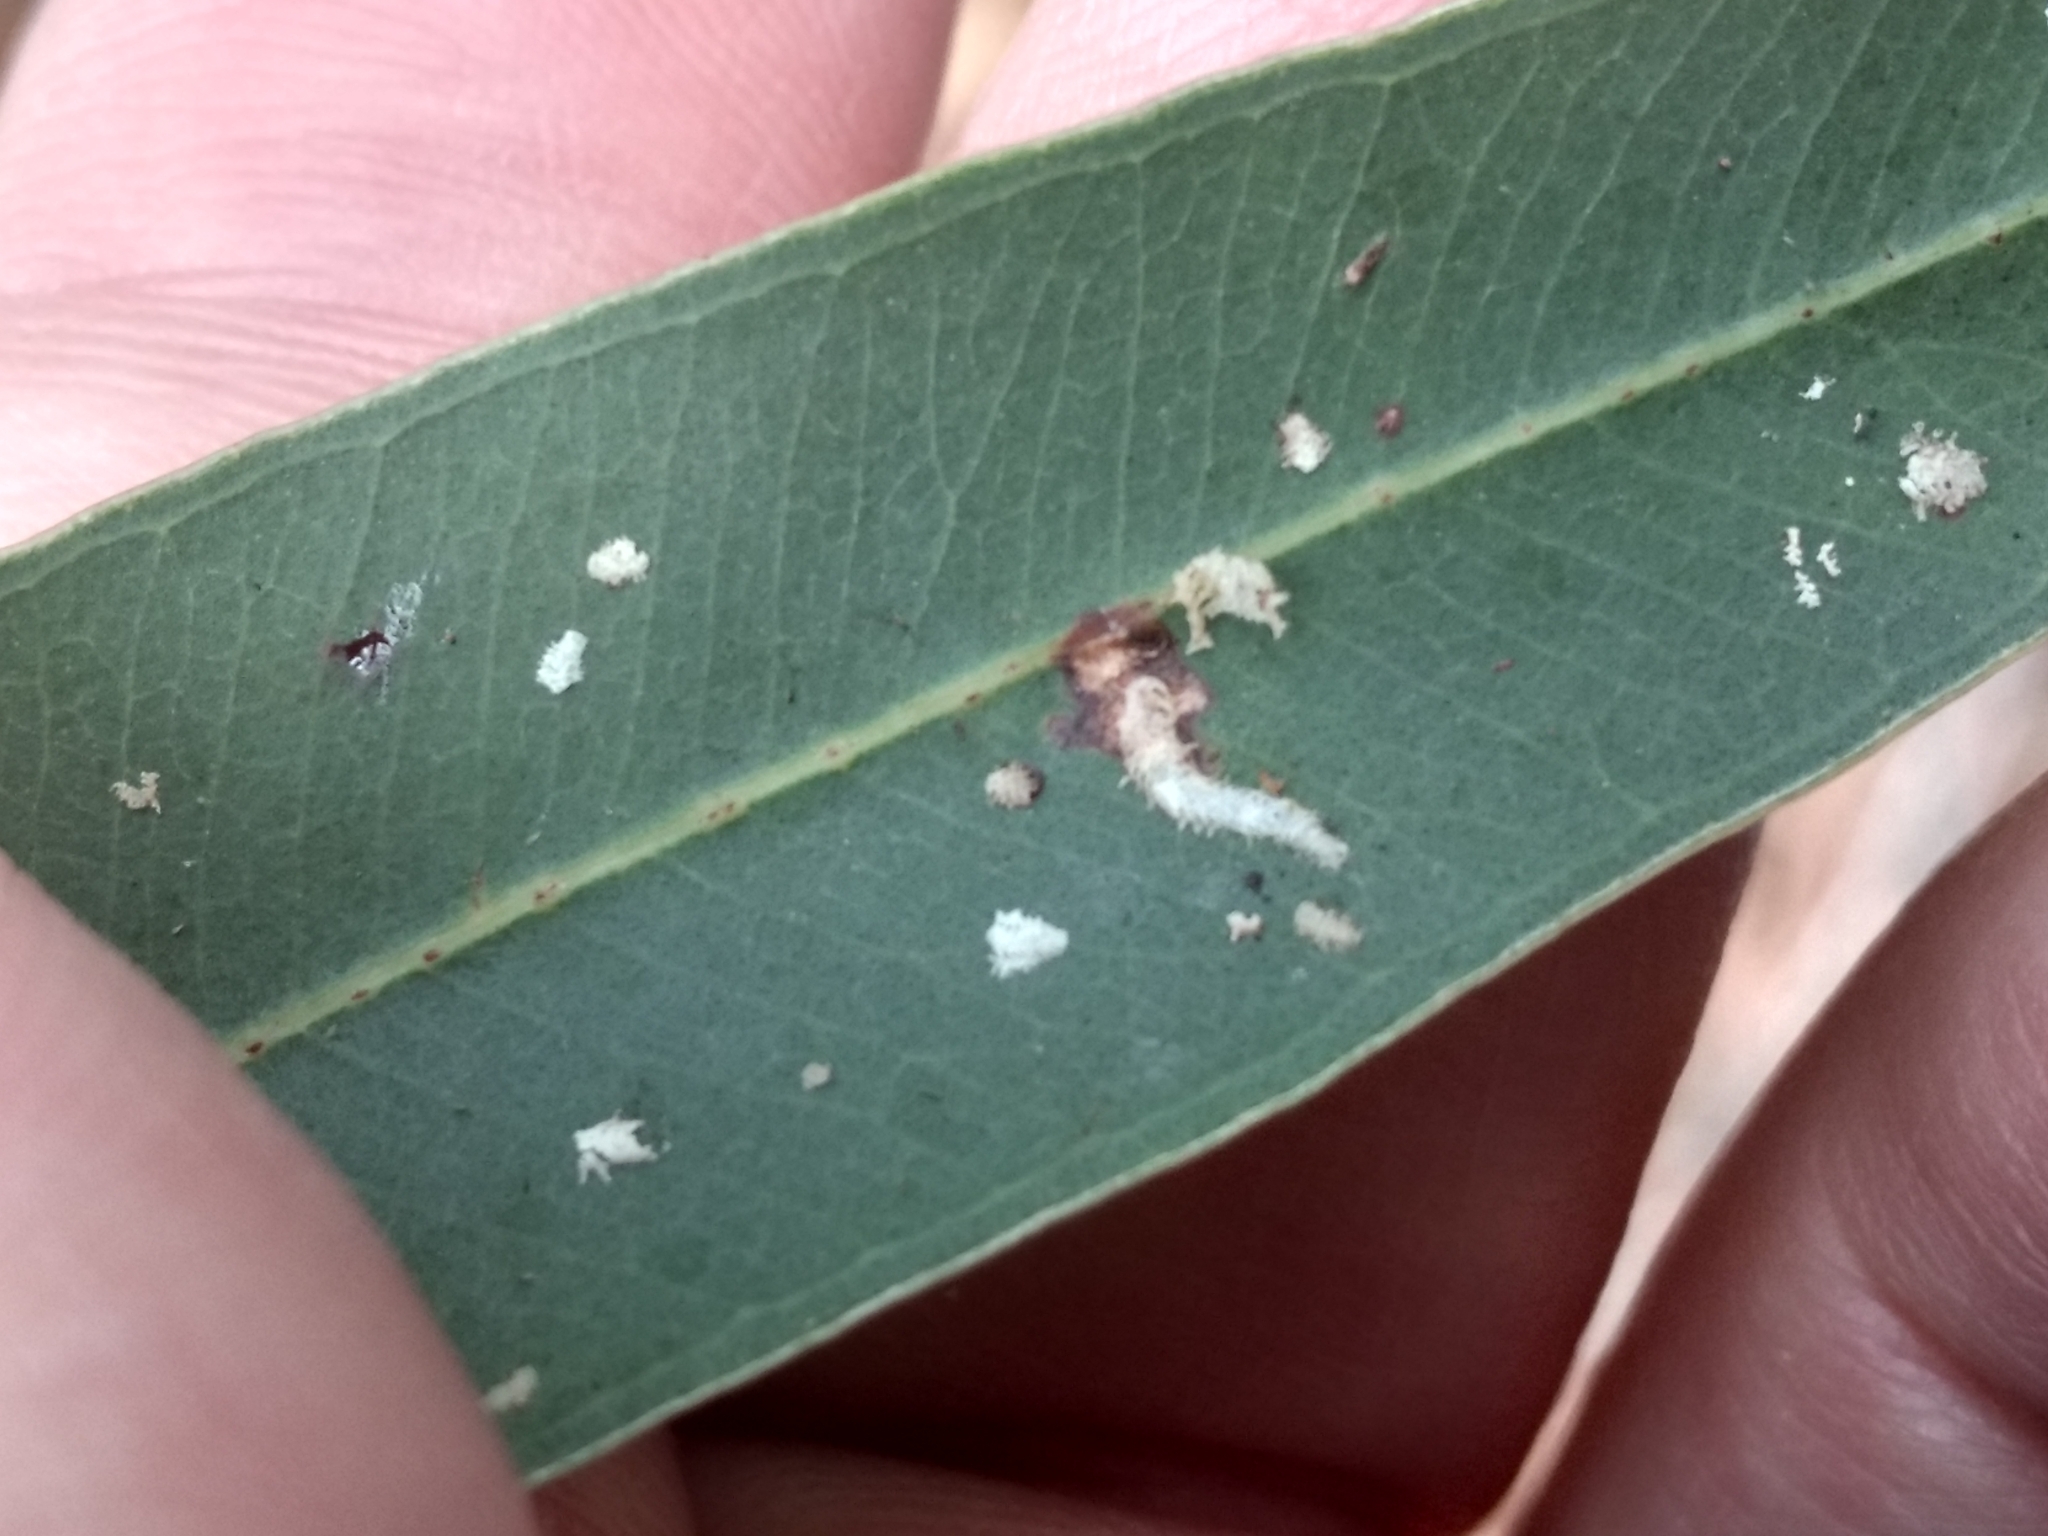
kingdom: Animalia
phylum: Arthropoda
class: Insecta
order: Hemiptera
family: Aphalaridae
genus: Eucalyptolyma
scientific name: Eucalyptolyma maideni
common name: Spotted gum lerp psyllid
